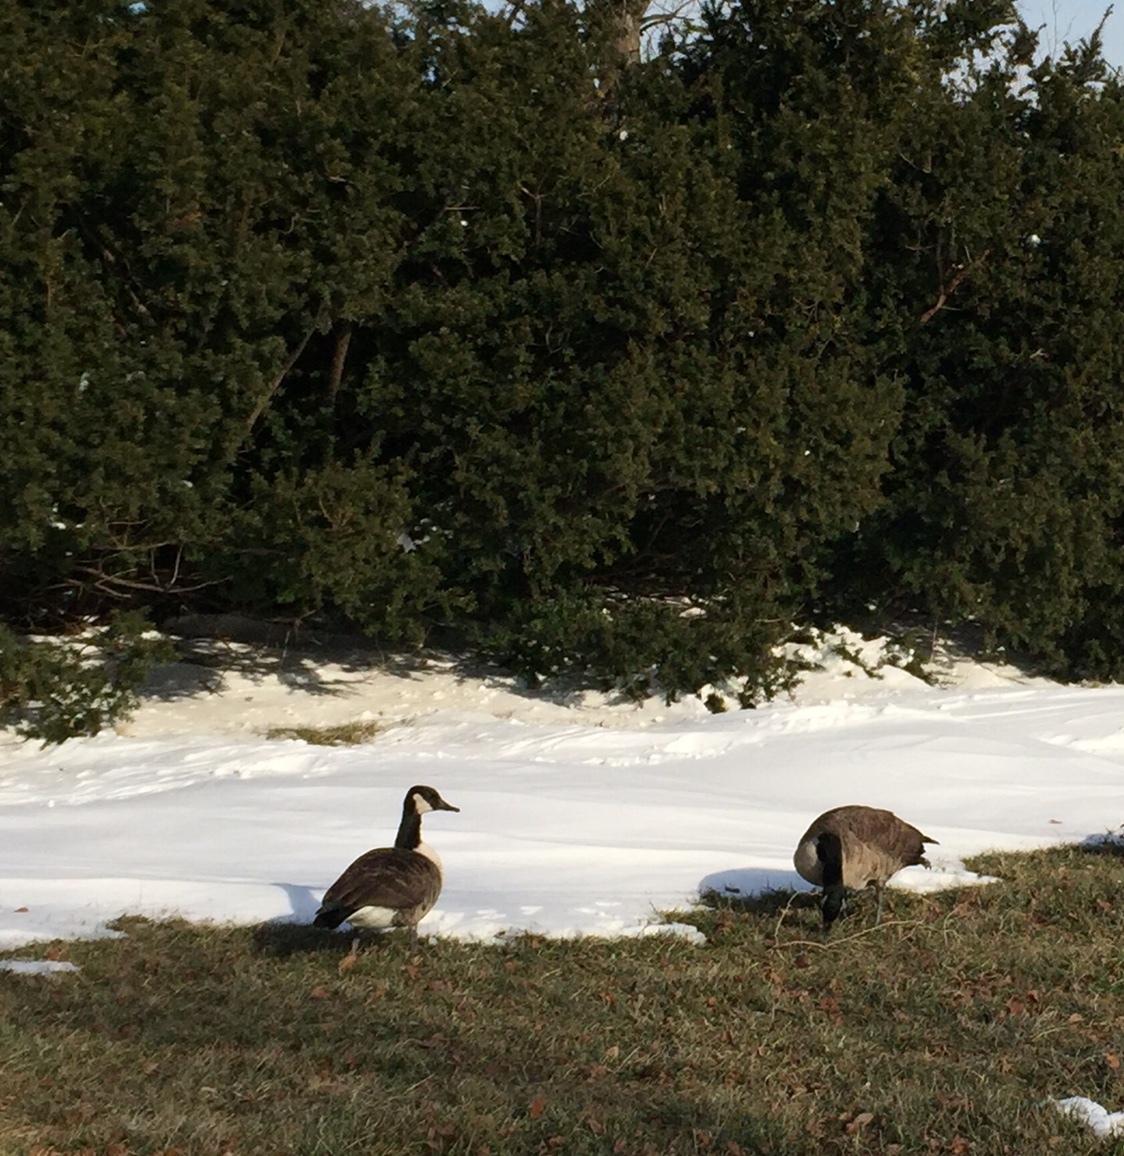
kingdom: Animalia
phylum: Chordata
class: Aves
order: Anseriformes
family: Anatidae
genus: Branta
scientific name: Branta canadensis
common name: Canada goose
